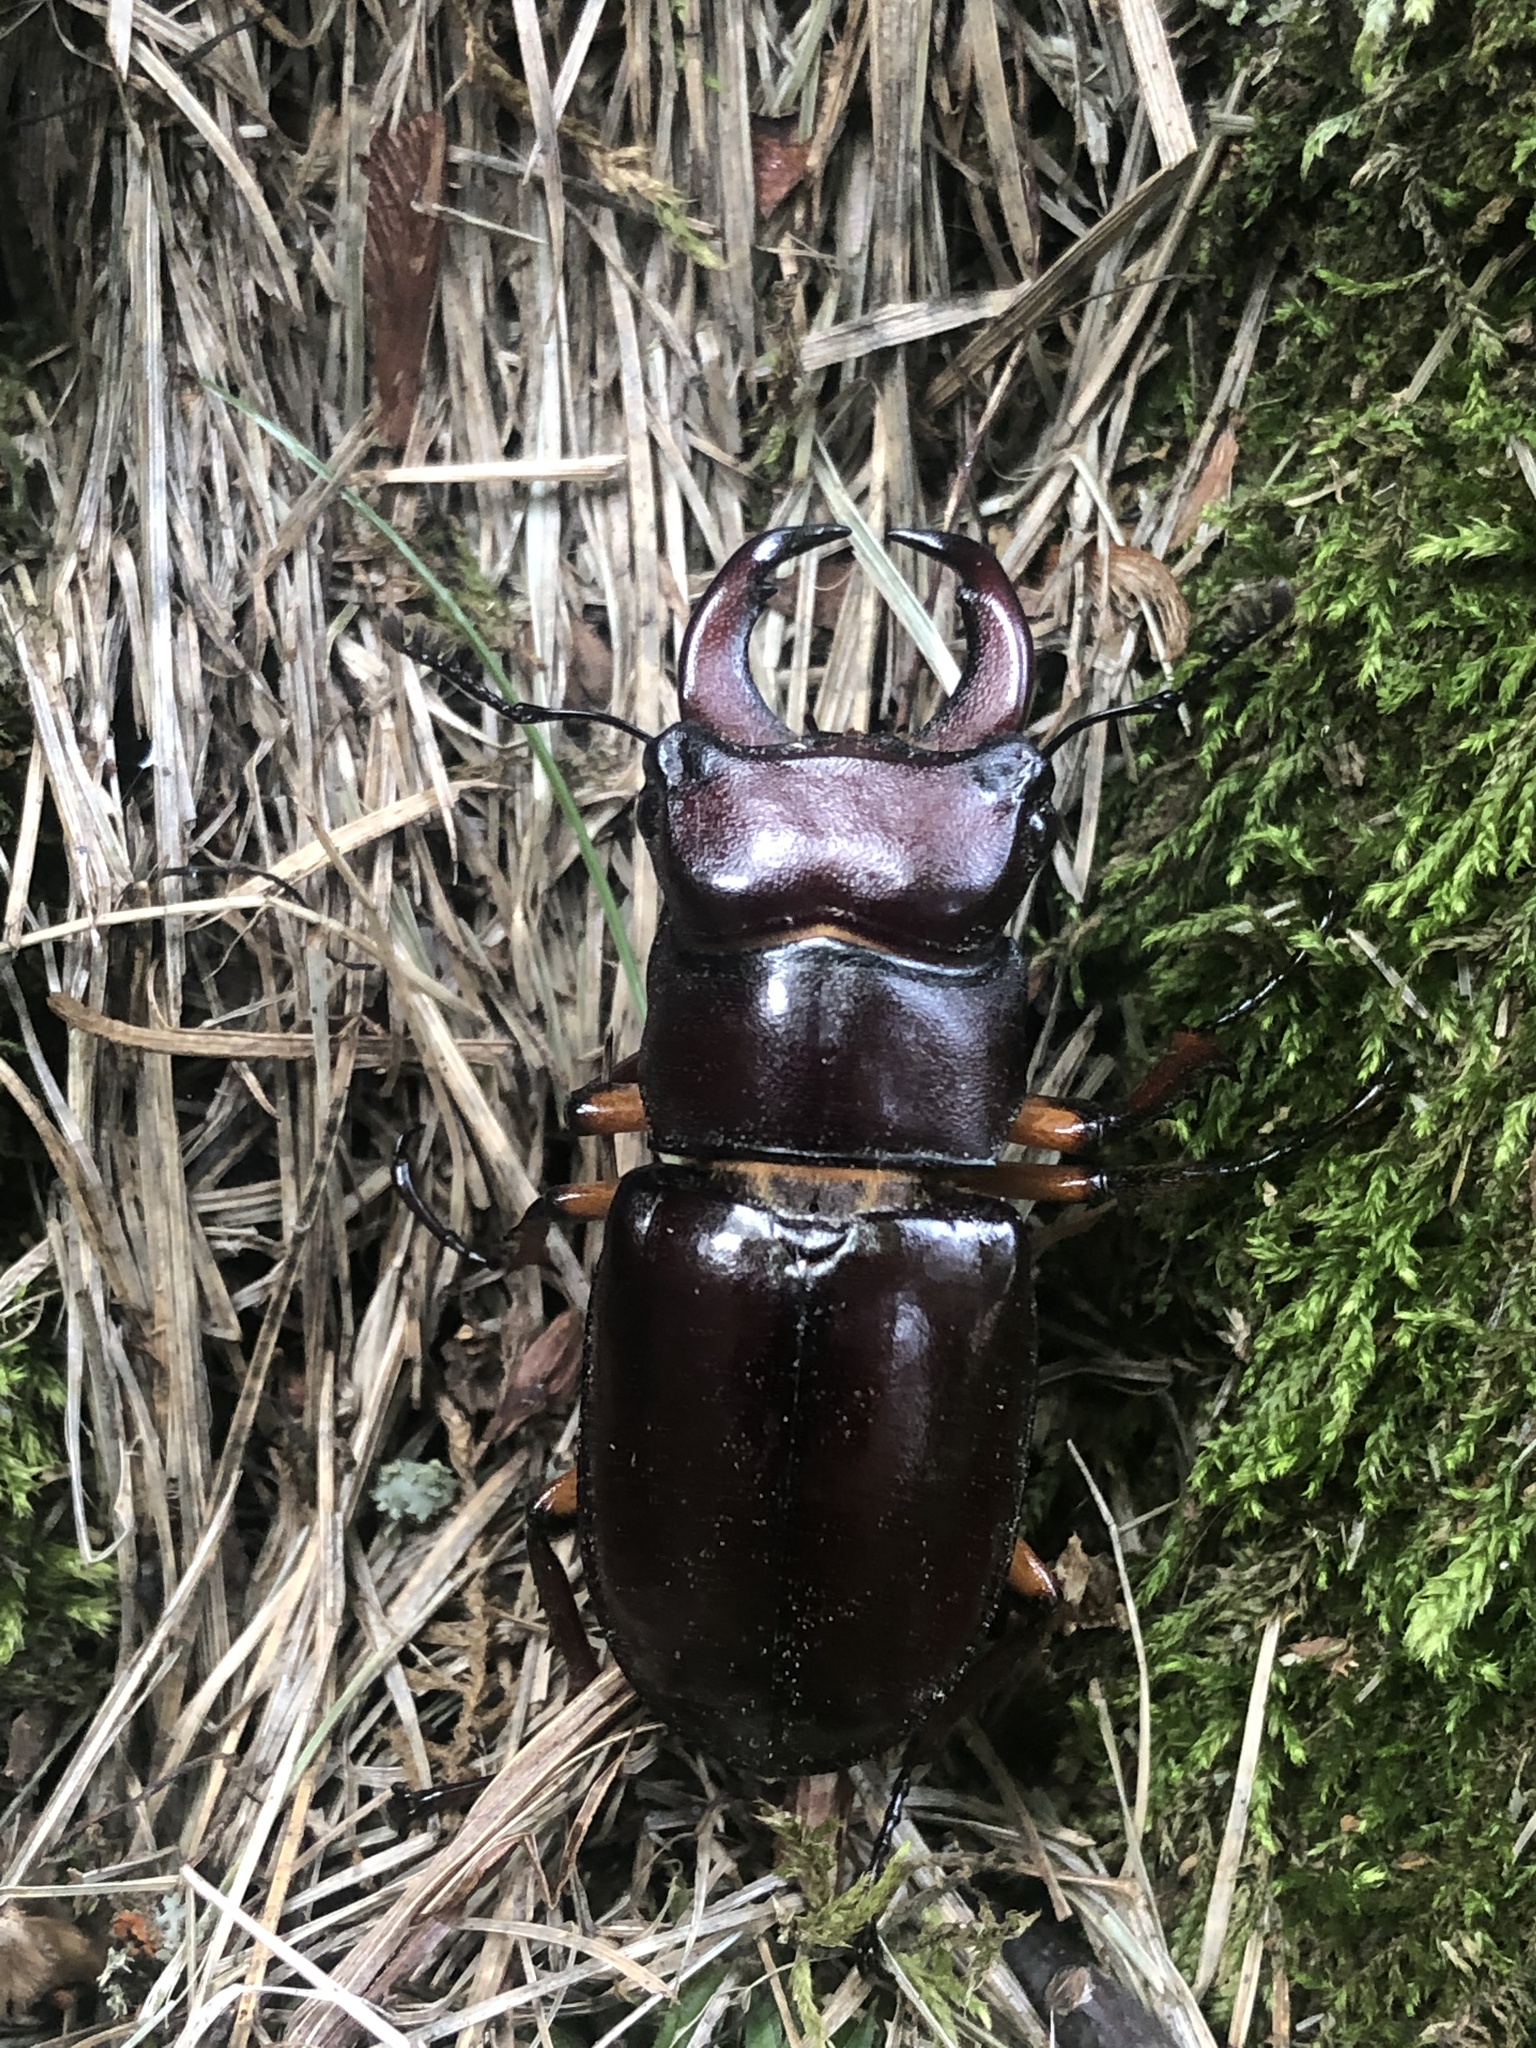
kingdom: Animalia
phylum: Arthropoda
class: Insecta
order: Coleoptera
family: Lucanidae
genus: Lucanus
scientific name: Lucanus capreolus
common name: Stag beetle
